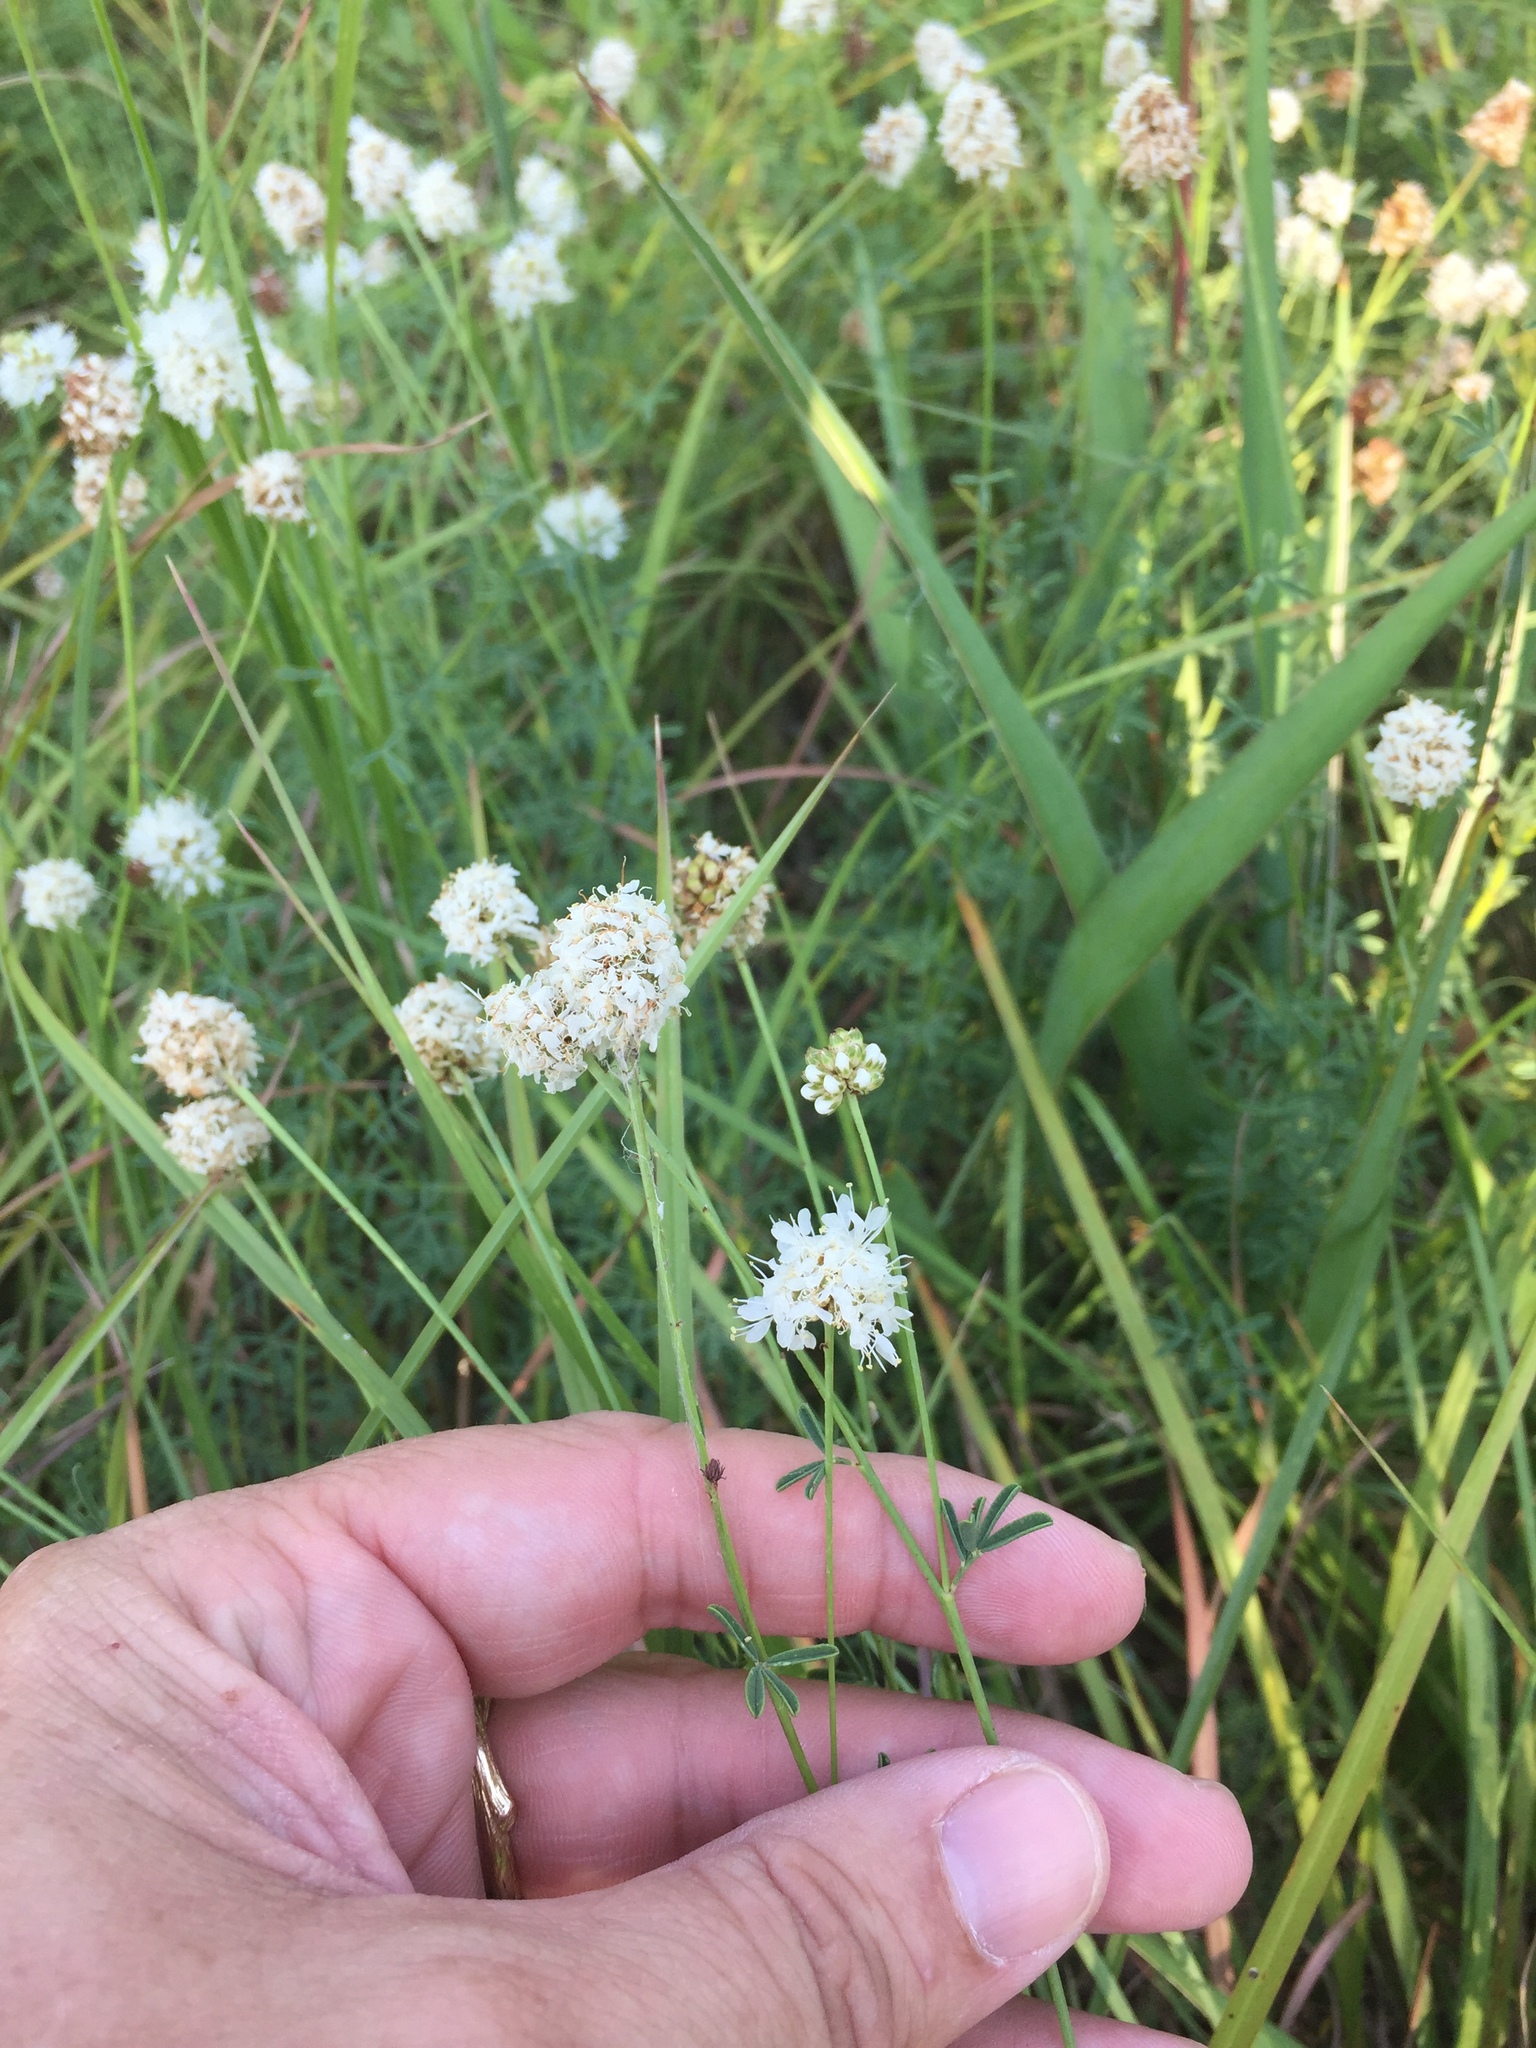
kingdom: Plantae
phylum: Tracheophyta
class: Magnoliopsida
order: Fabales
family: Fabaceae
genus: Dalea
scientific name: Dalea multiflora
